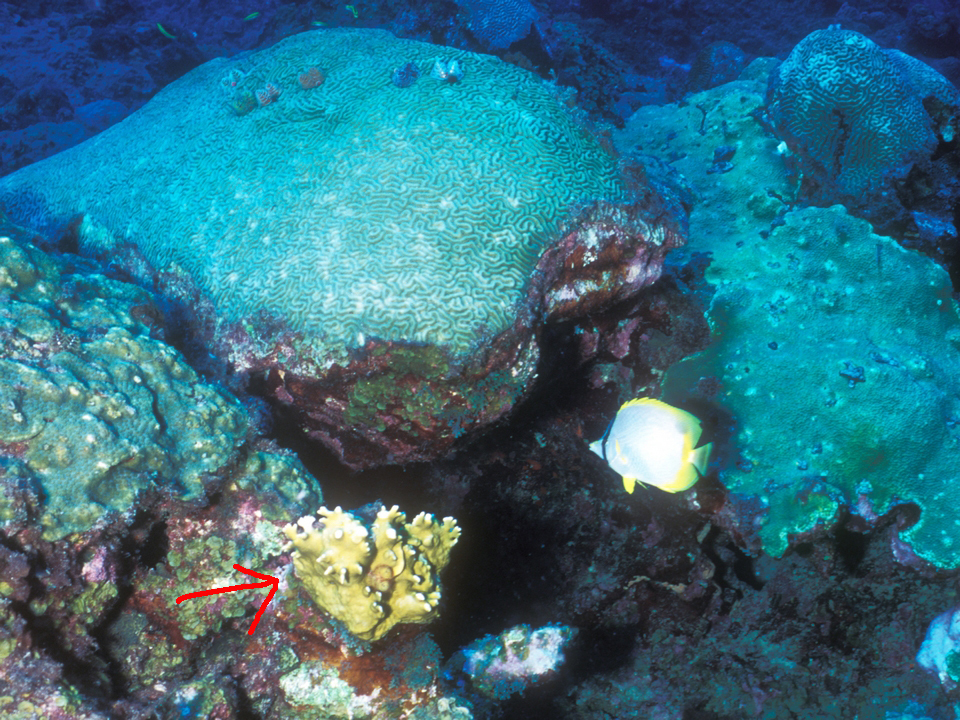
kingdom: Animalia
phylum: Cnidaria
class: Hydrozoa
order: Anthoathecata
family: Milleporidae
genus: Millepora
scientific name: Millepora alcicornis
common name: Branching fire coral
